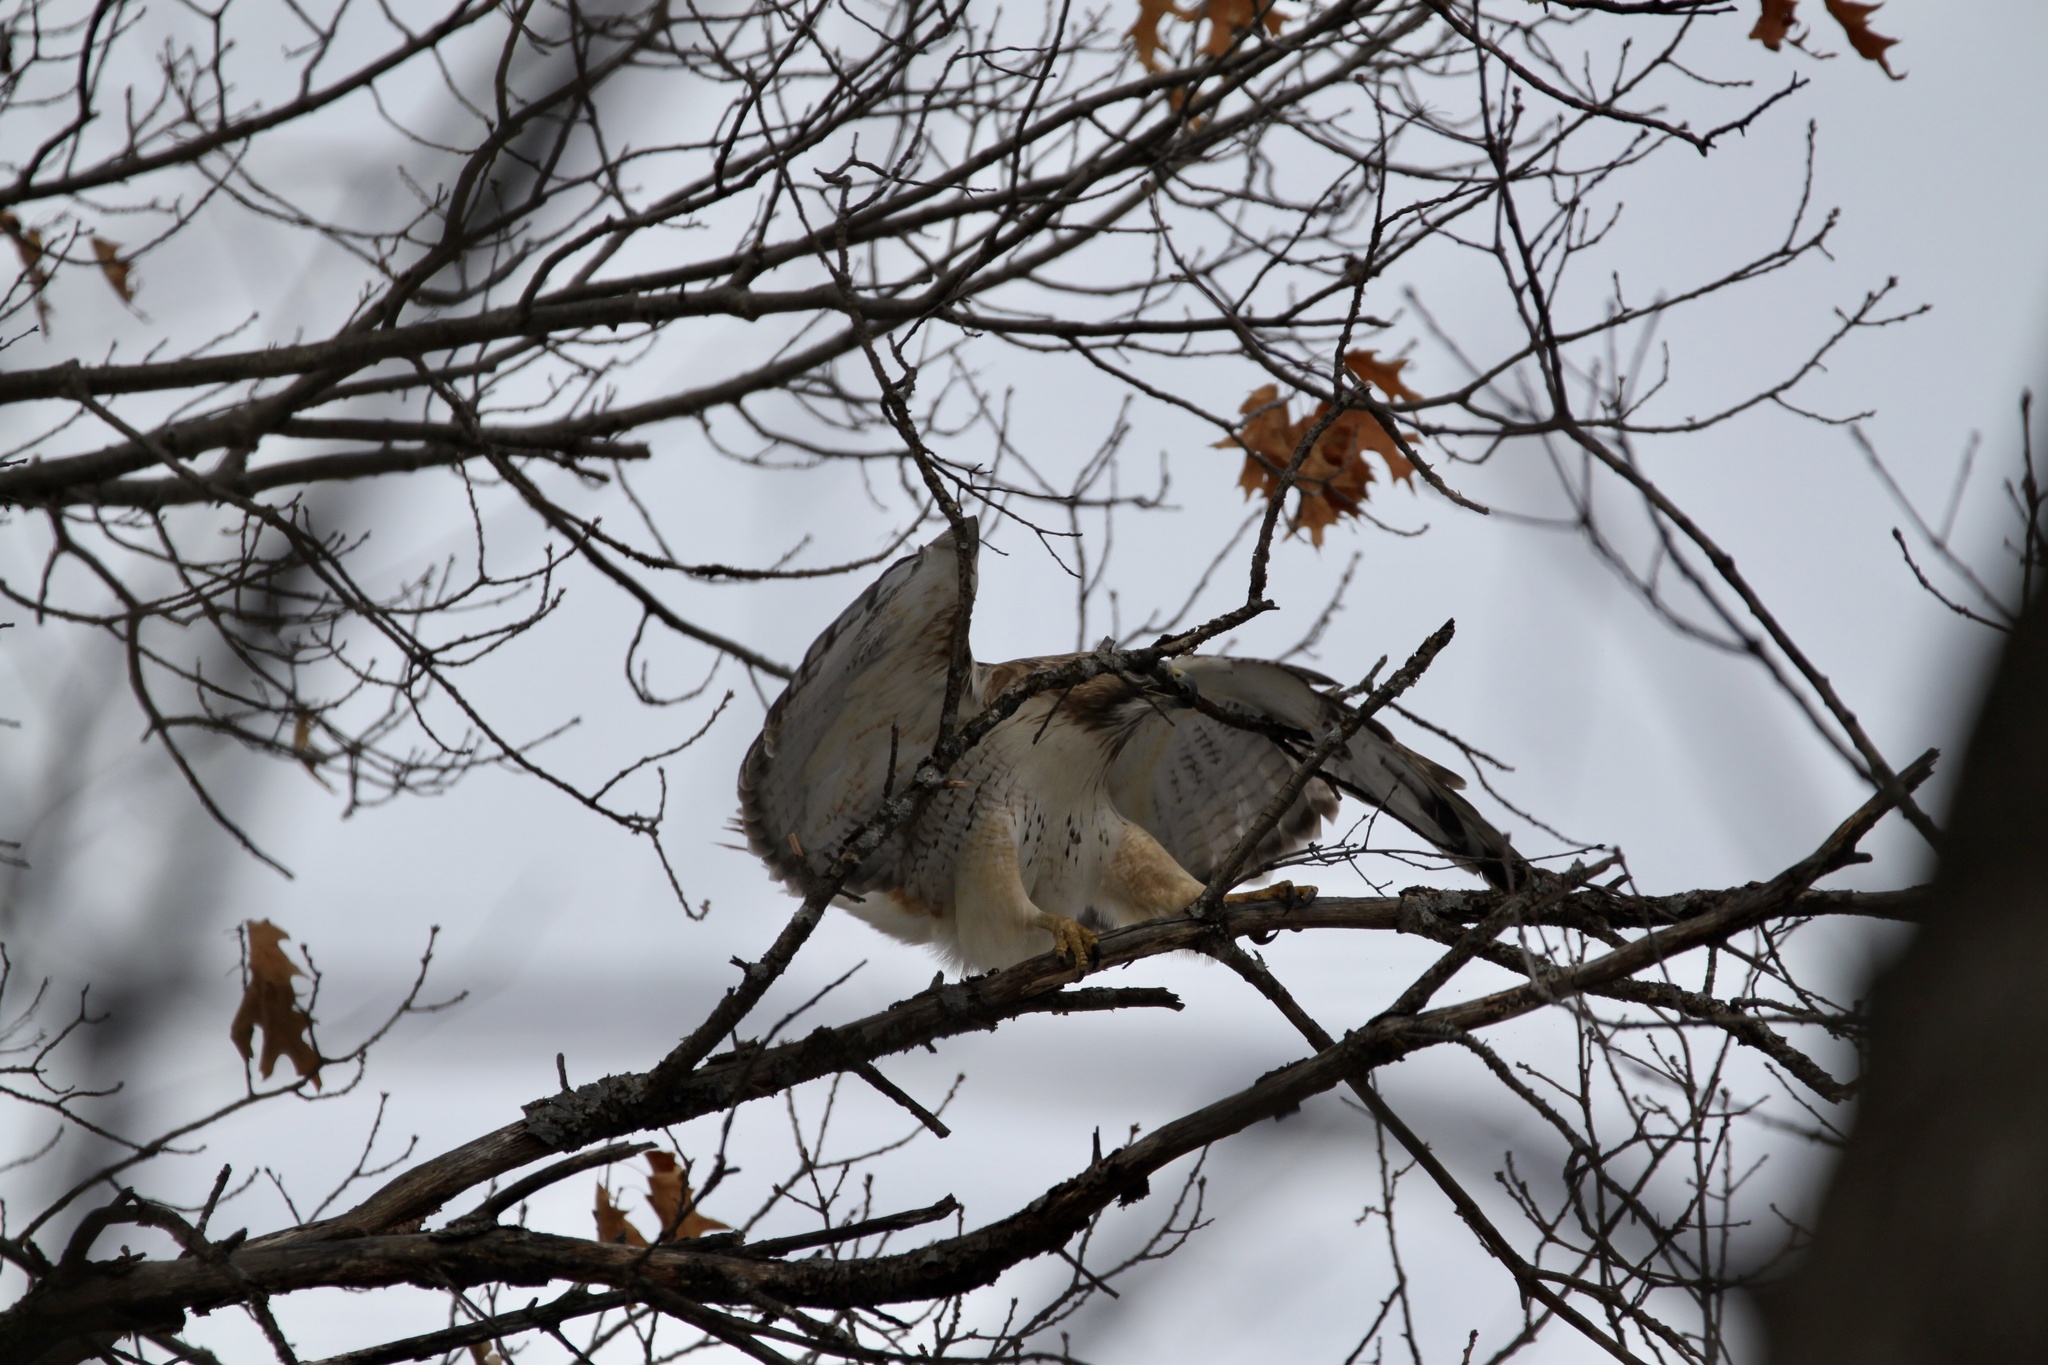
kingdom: Animalia
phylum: Chordata
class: Aves
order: Accipitriformes
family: Accipitridae
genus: Buteo
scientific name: Buteo jamaicensis
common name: Red-tailed hawk
